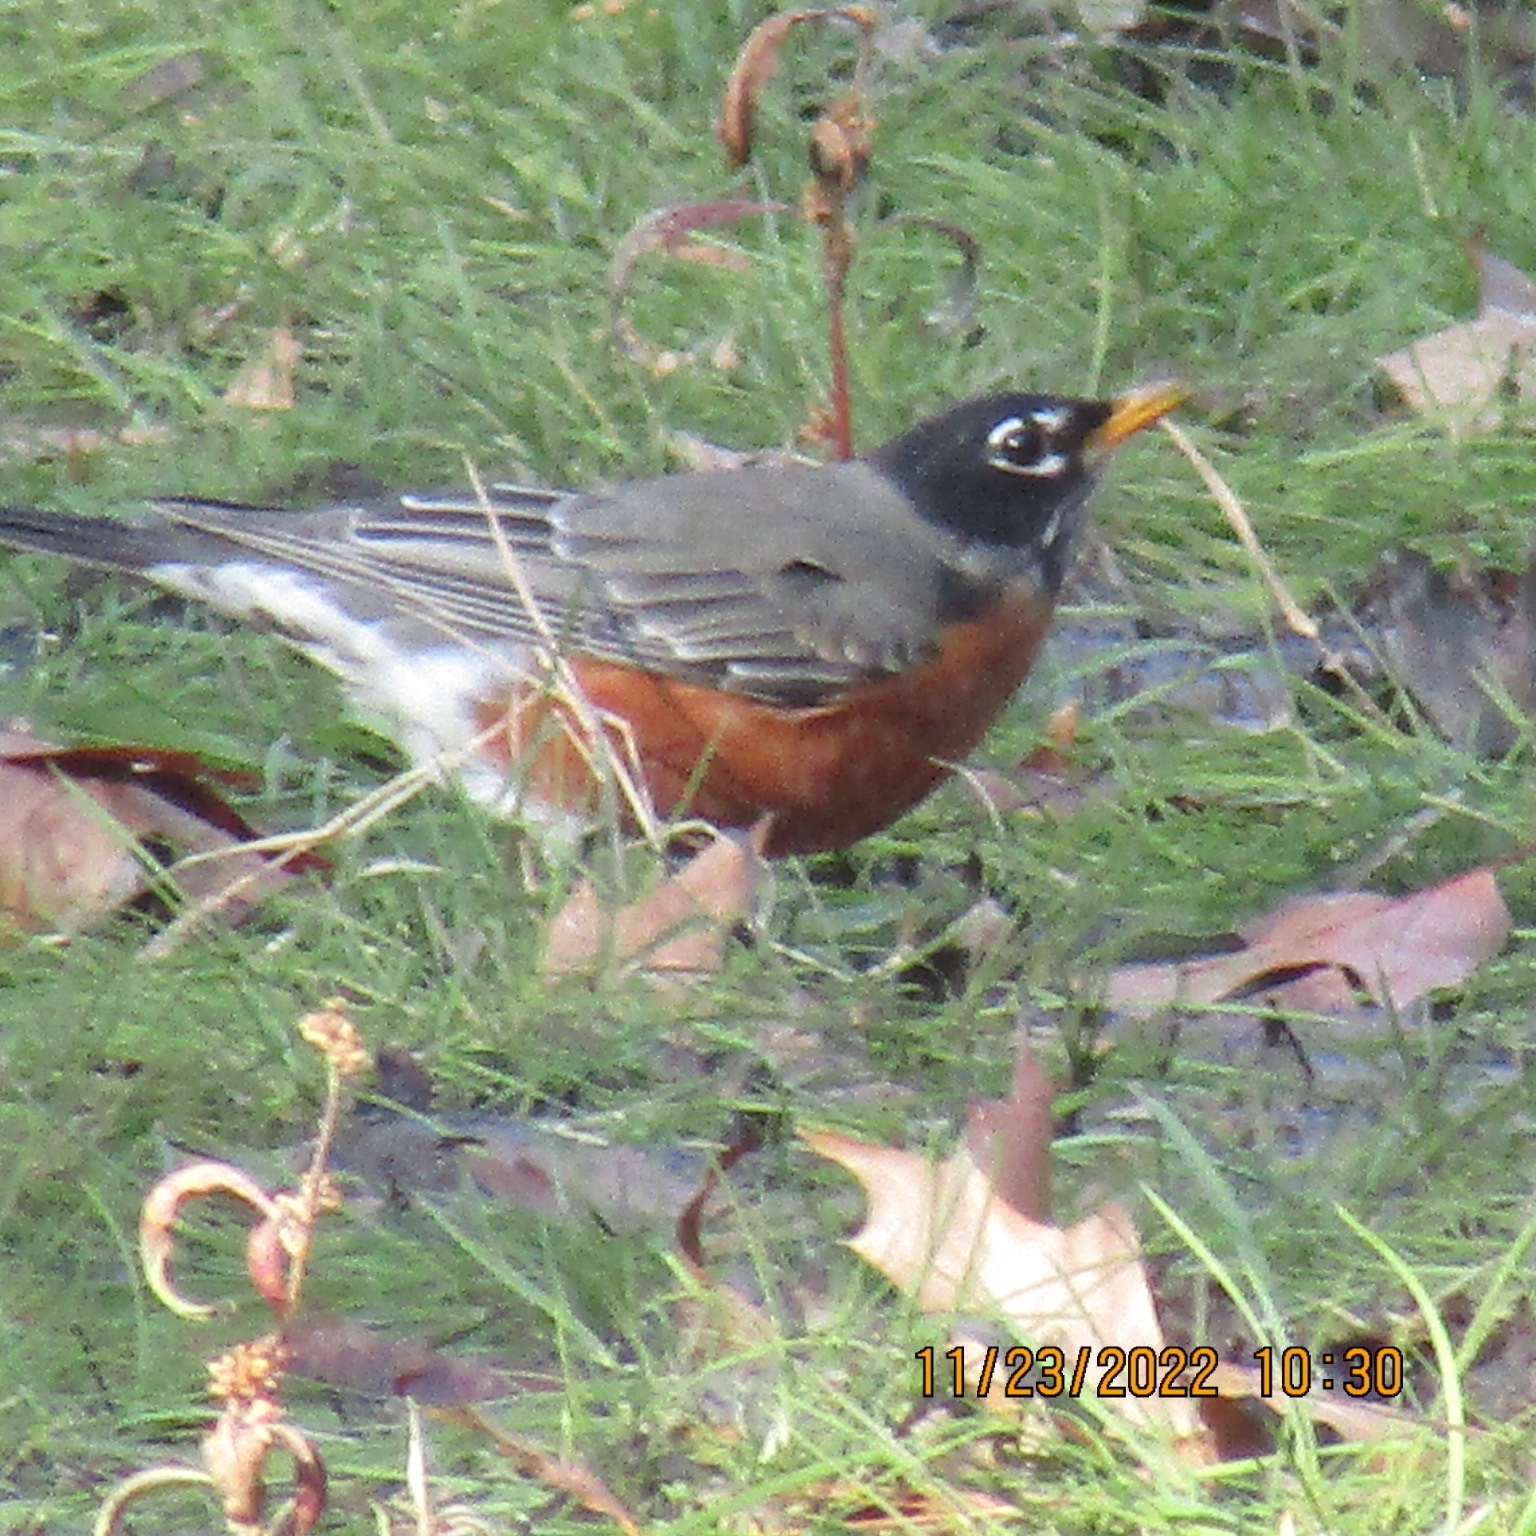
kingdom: Animalia
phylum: Chordata
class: Aves
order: Passeriformes
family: Turdidae
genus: Turdus
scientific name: Turdus migratorius
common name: American robin
